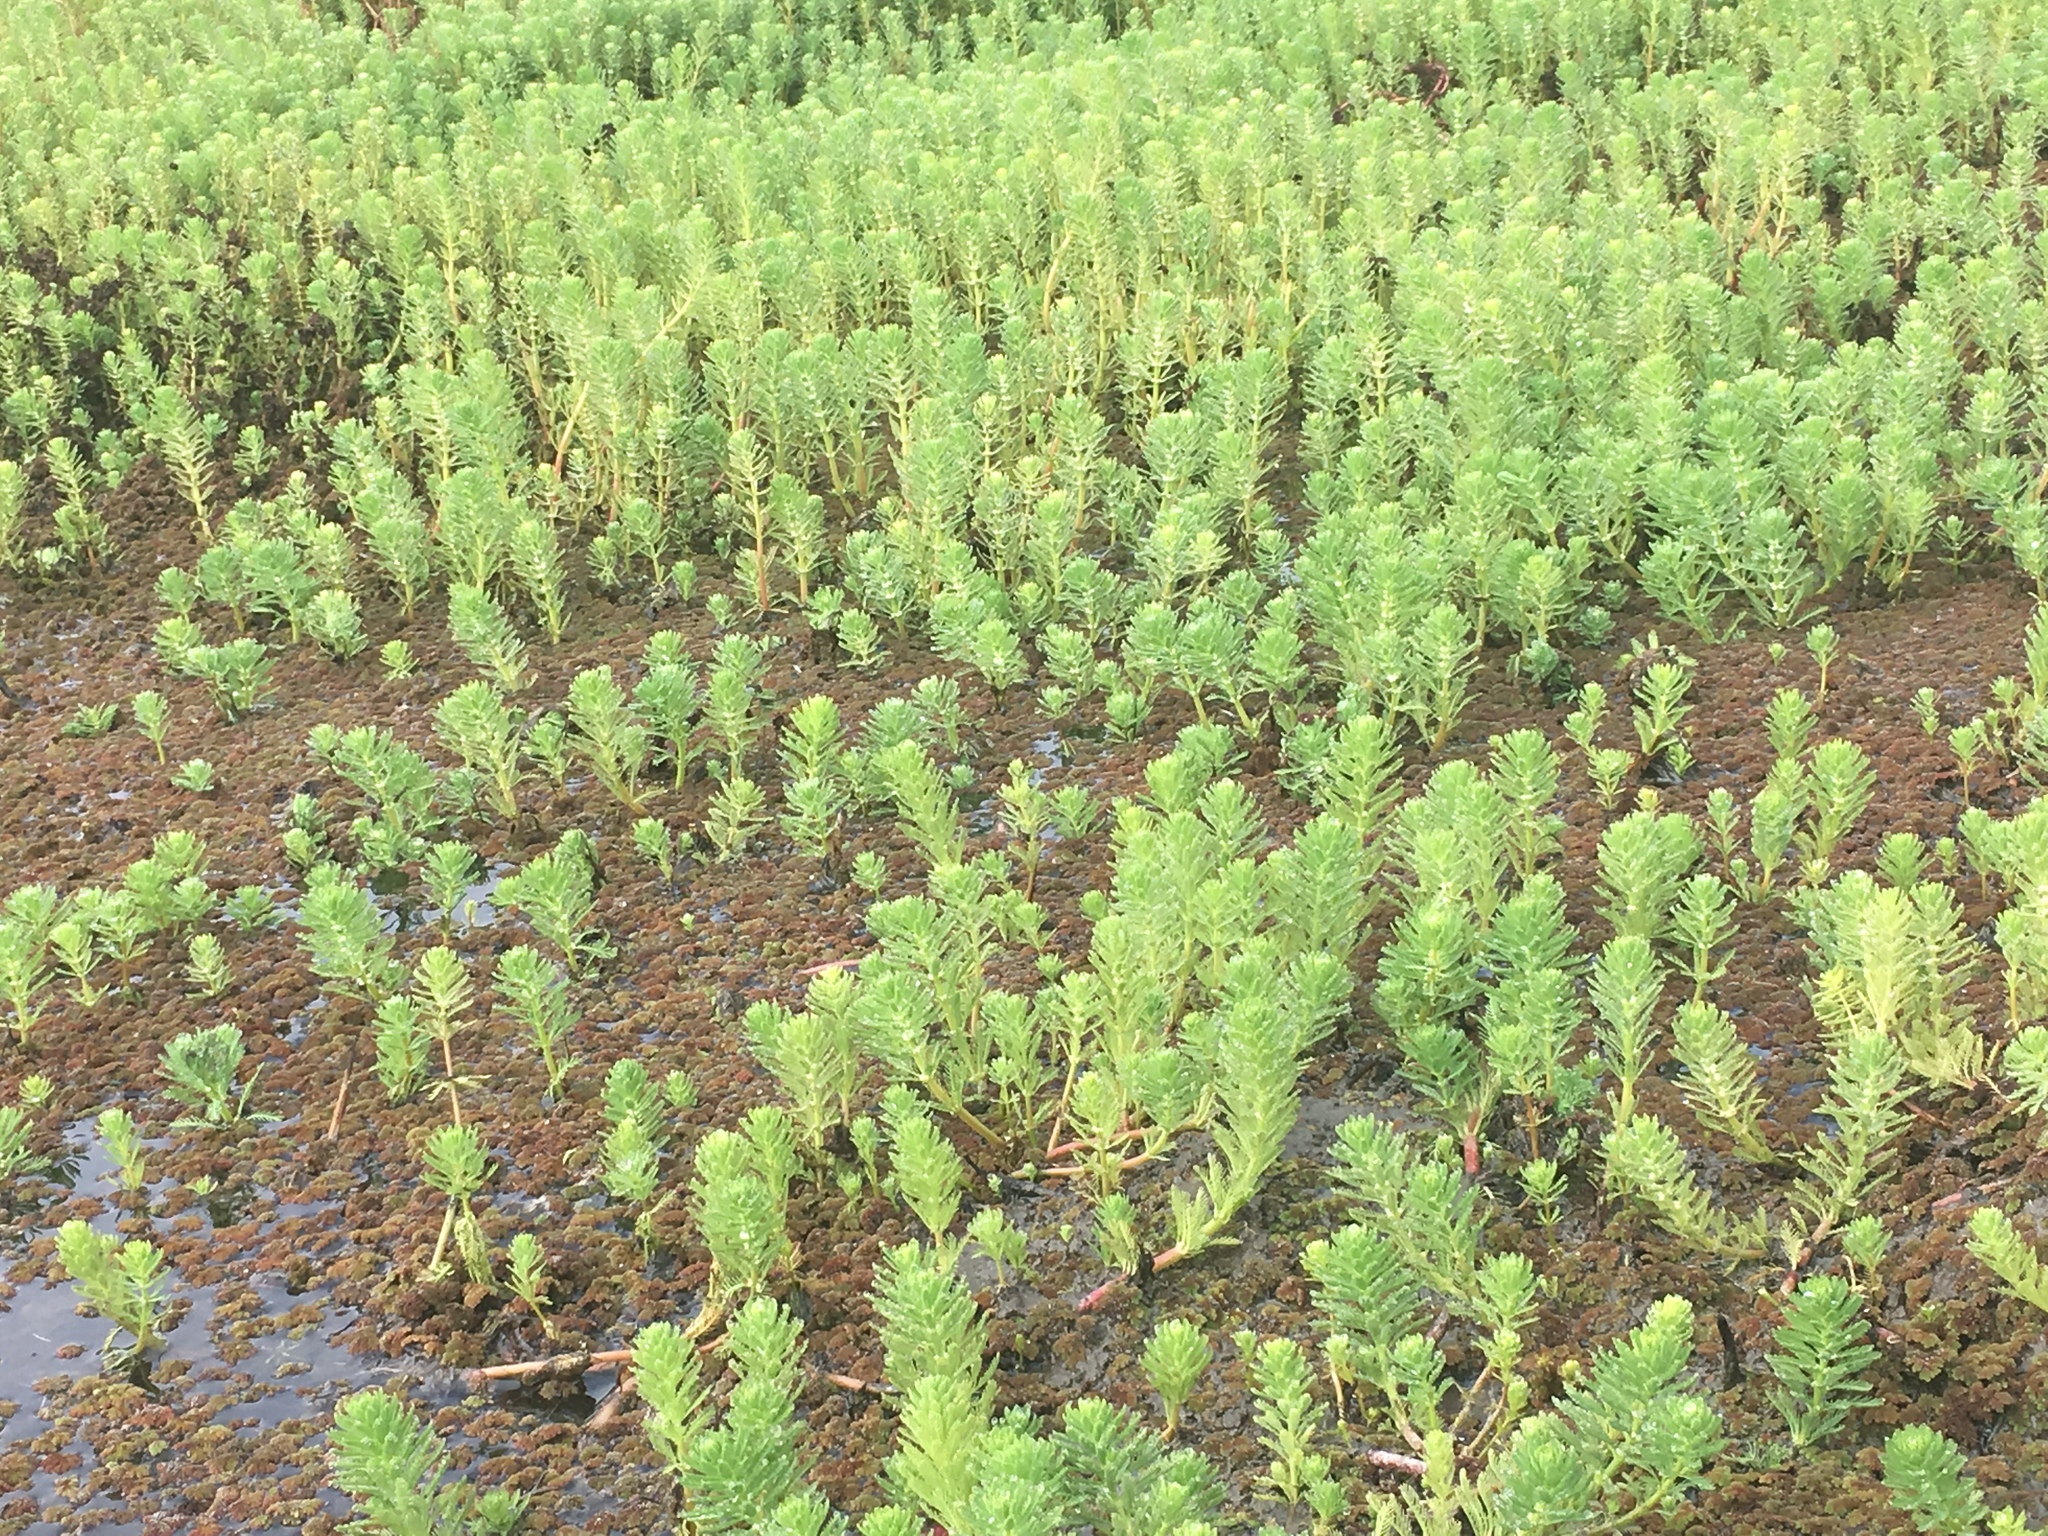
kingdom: Plantae
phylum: Tracheophyta
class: Magnoliopsida
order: Saxifragales
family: Haloragaceae
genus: Myriophyllum
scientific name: Myriophyllum aquaticum
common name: Parrot's feather
